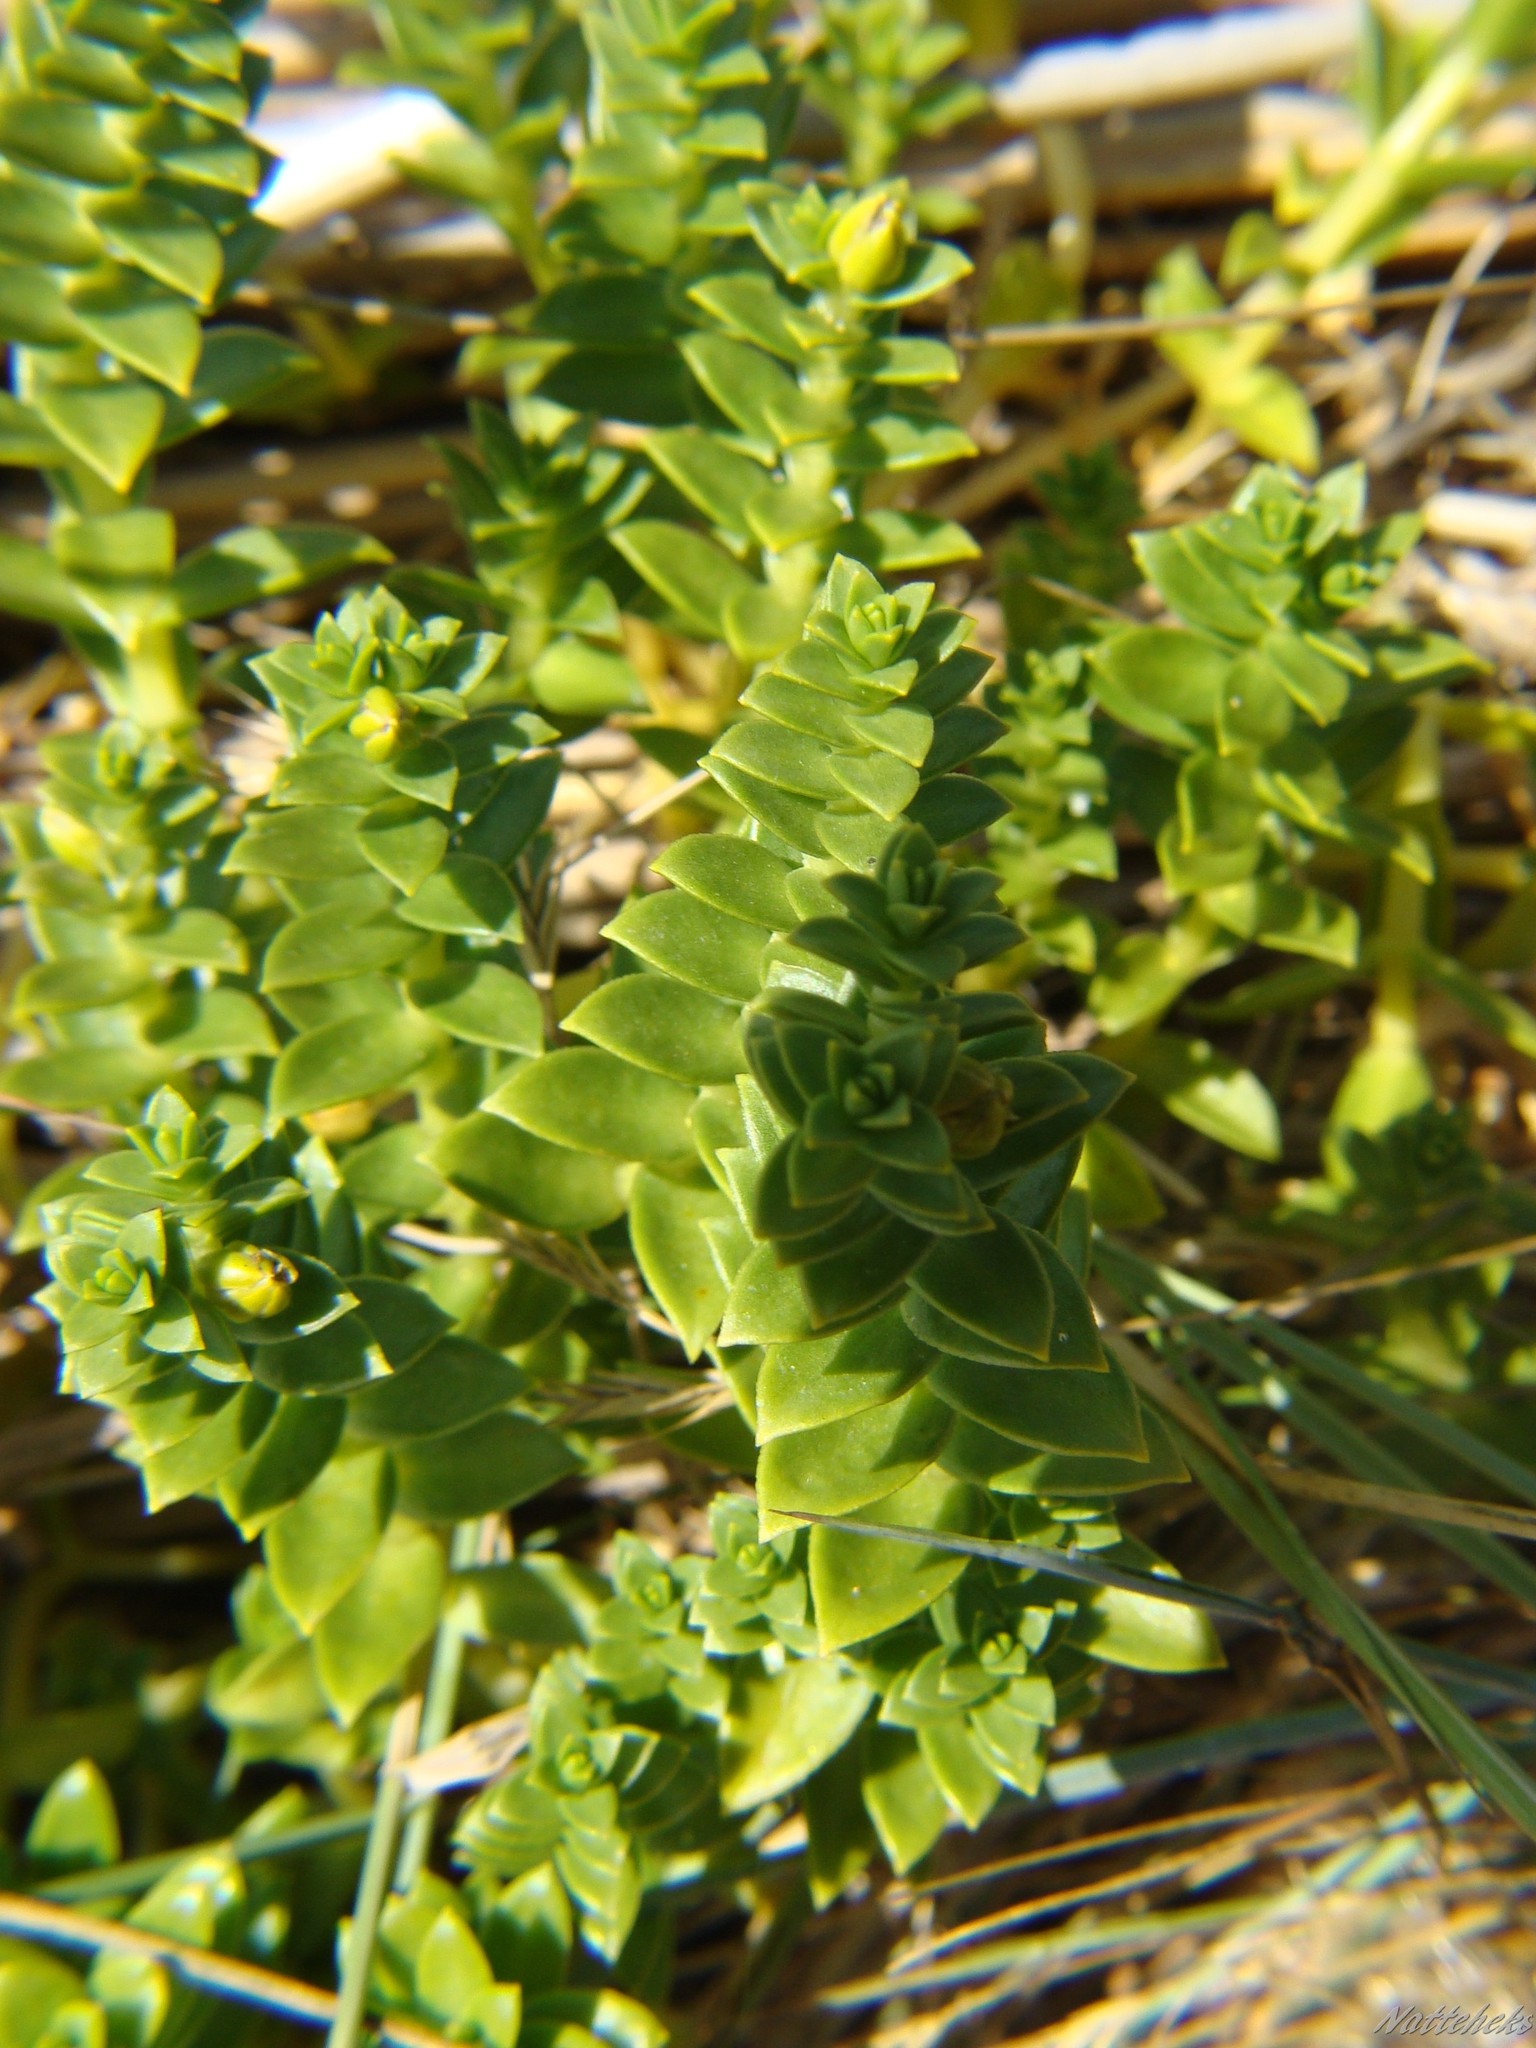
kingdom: Plantae
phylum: Tracheophyta
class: Magnoliopsida
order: Caryophyllales
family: Caryophyllaceae
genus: Honckenya
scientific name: Honckenya peploides
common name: Sea sandwort
